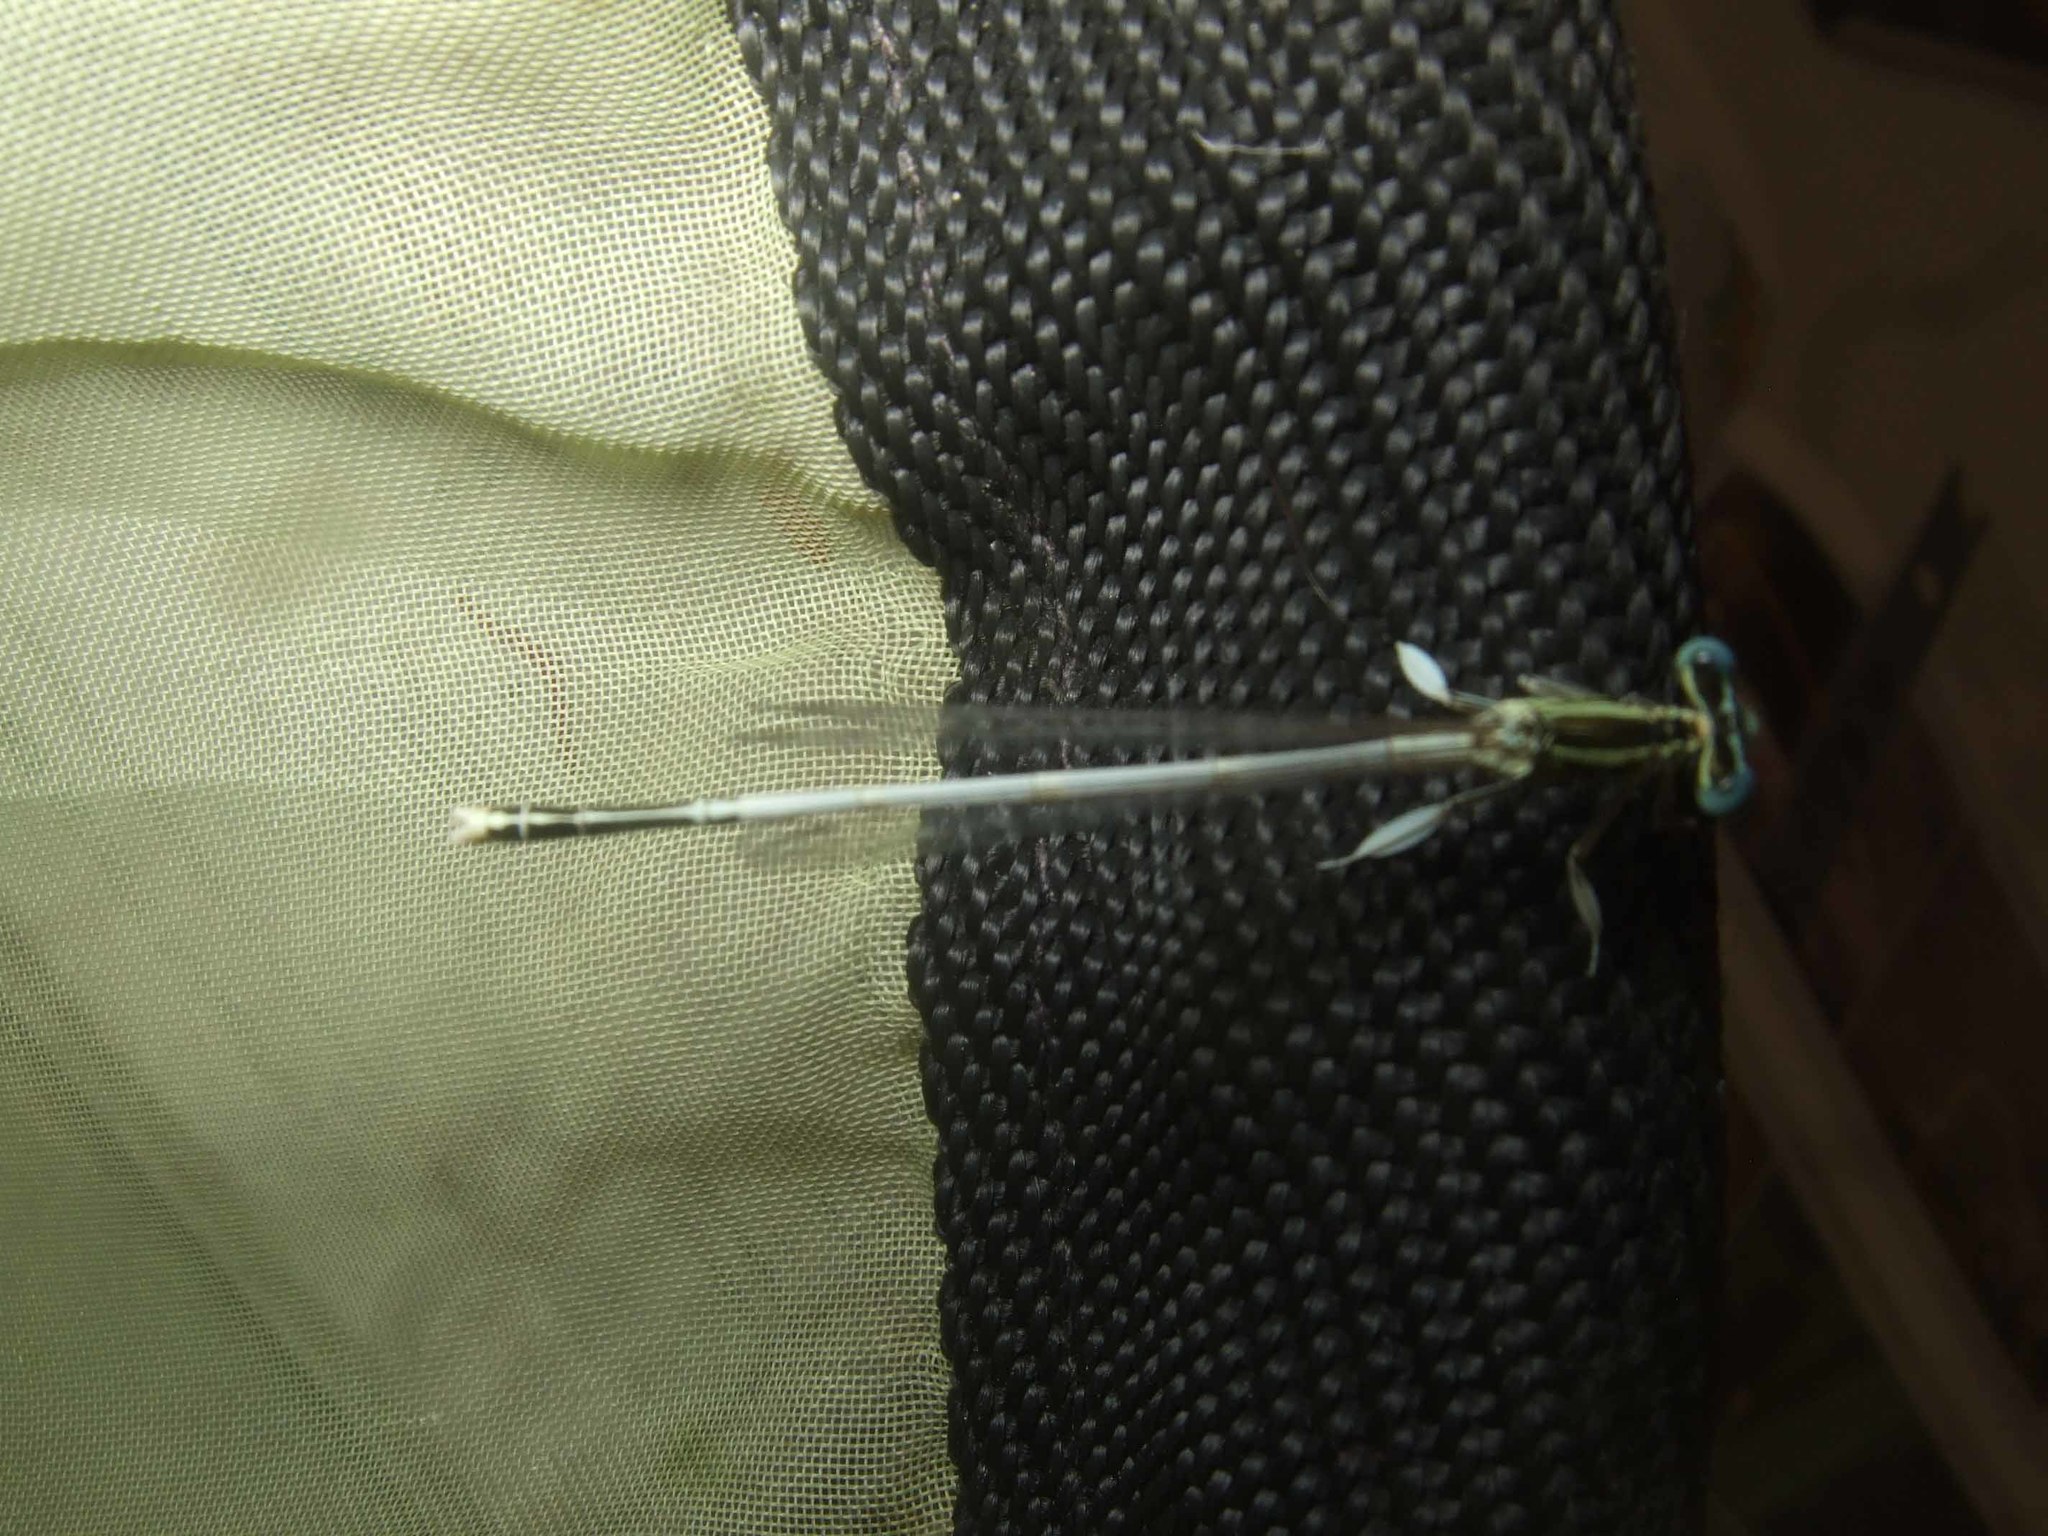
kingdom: Animalia
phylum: Arthropoda
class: Insecta
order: Odonata
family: Platycnemididae
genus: Platycnemis
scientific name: Platycnemis latipes
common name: White featherleg
